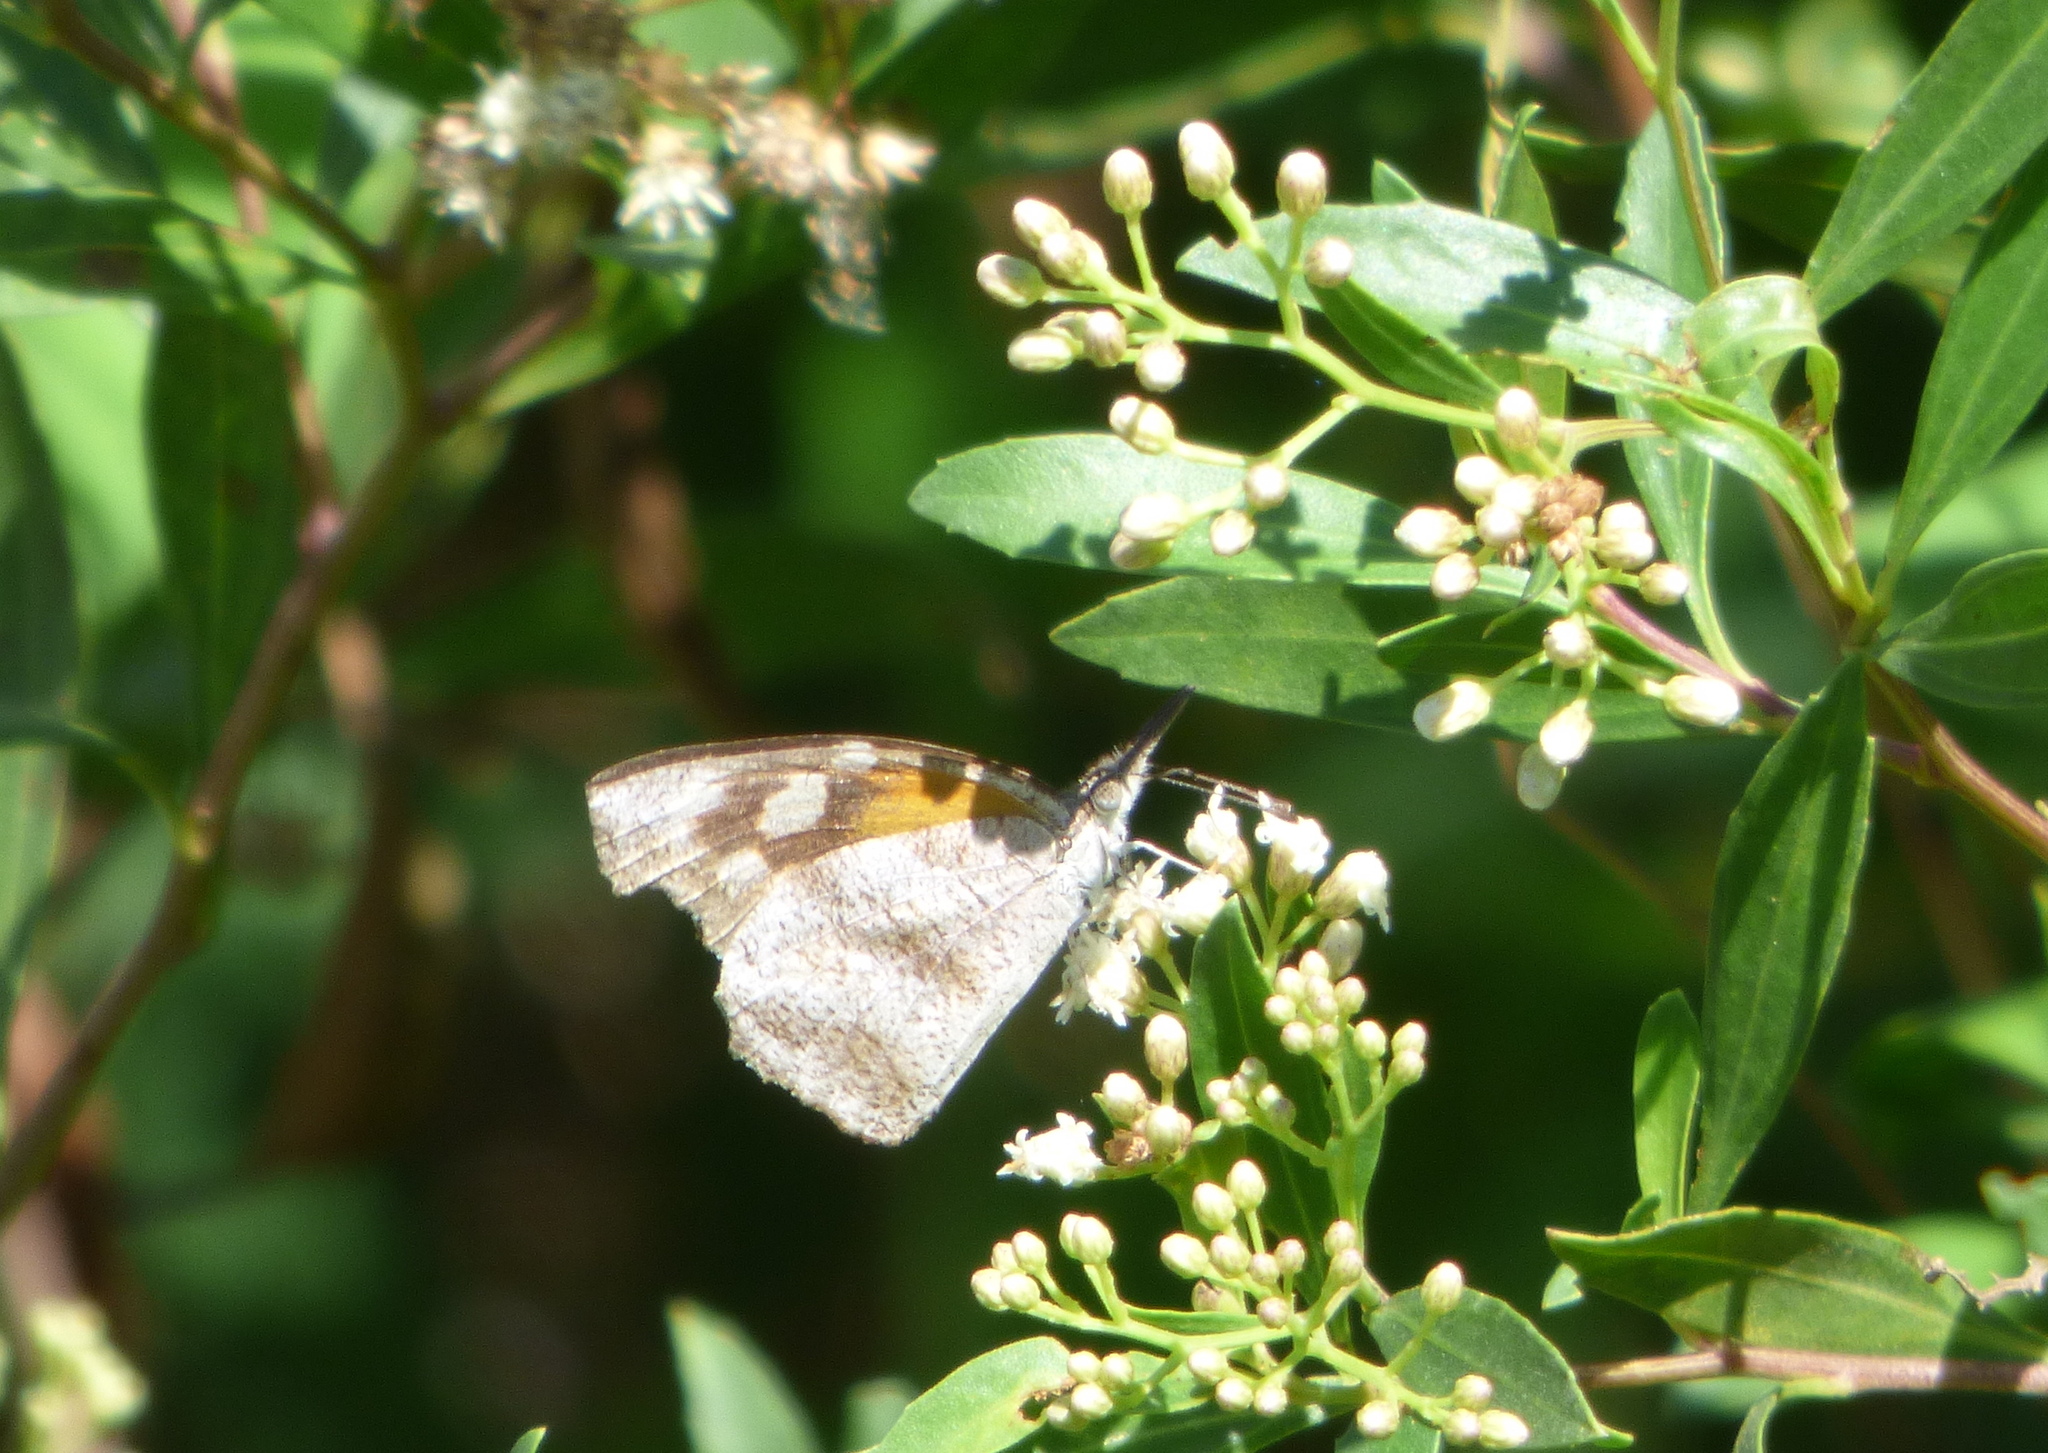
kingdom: Animalia
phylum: Arthropoda
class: Insecta
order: Lepidoptera
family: Nymphalidae
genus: Libytheana
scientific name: Libytheana carinenta
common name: American snout
